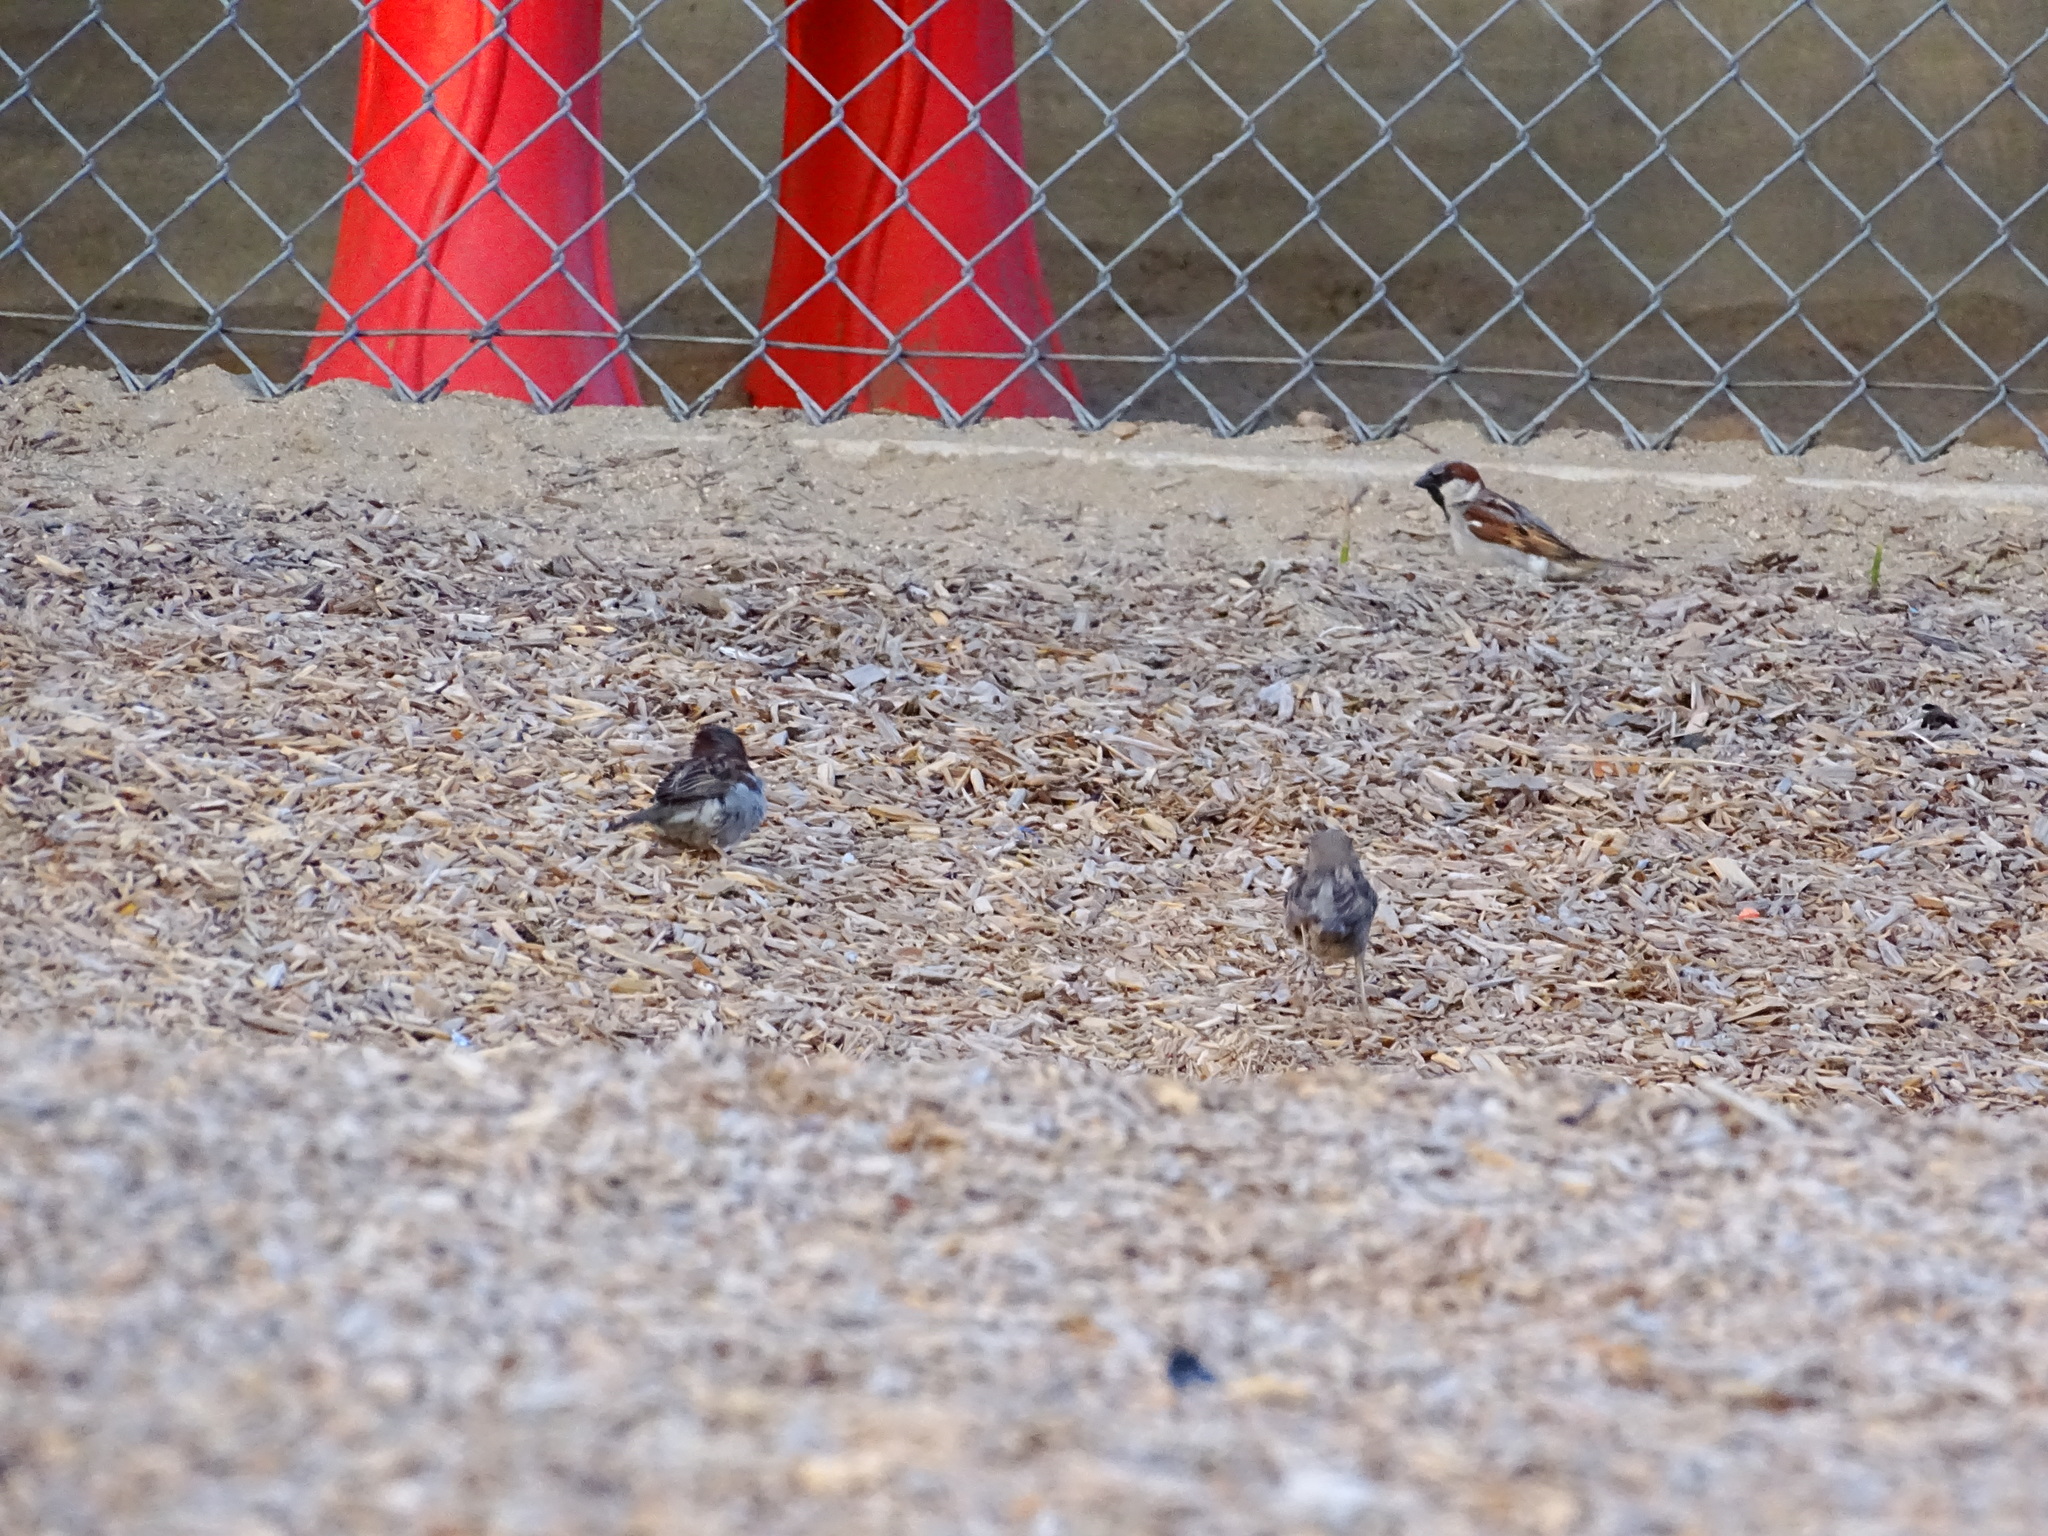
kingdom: Animalia
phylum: Chordata
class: Aves
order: Passeriformes
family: Passeridae
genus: Passer
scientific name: Passer domesticus
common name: House sparrow
